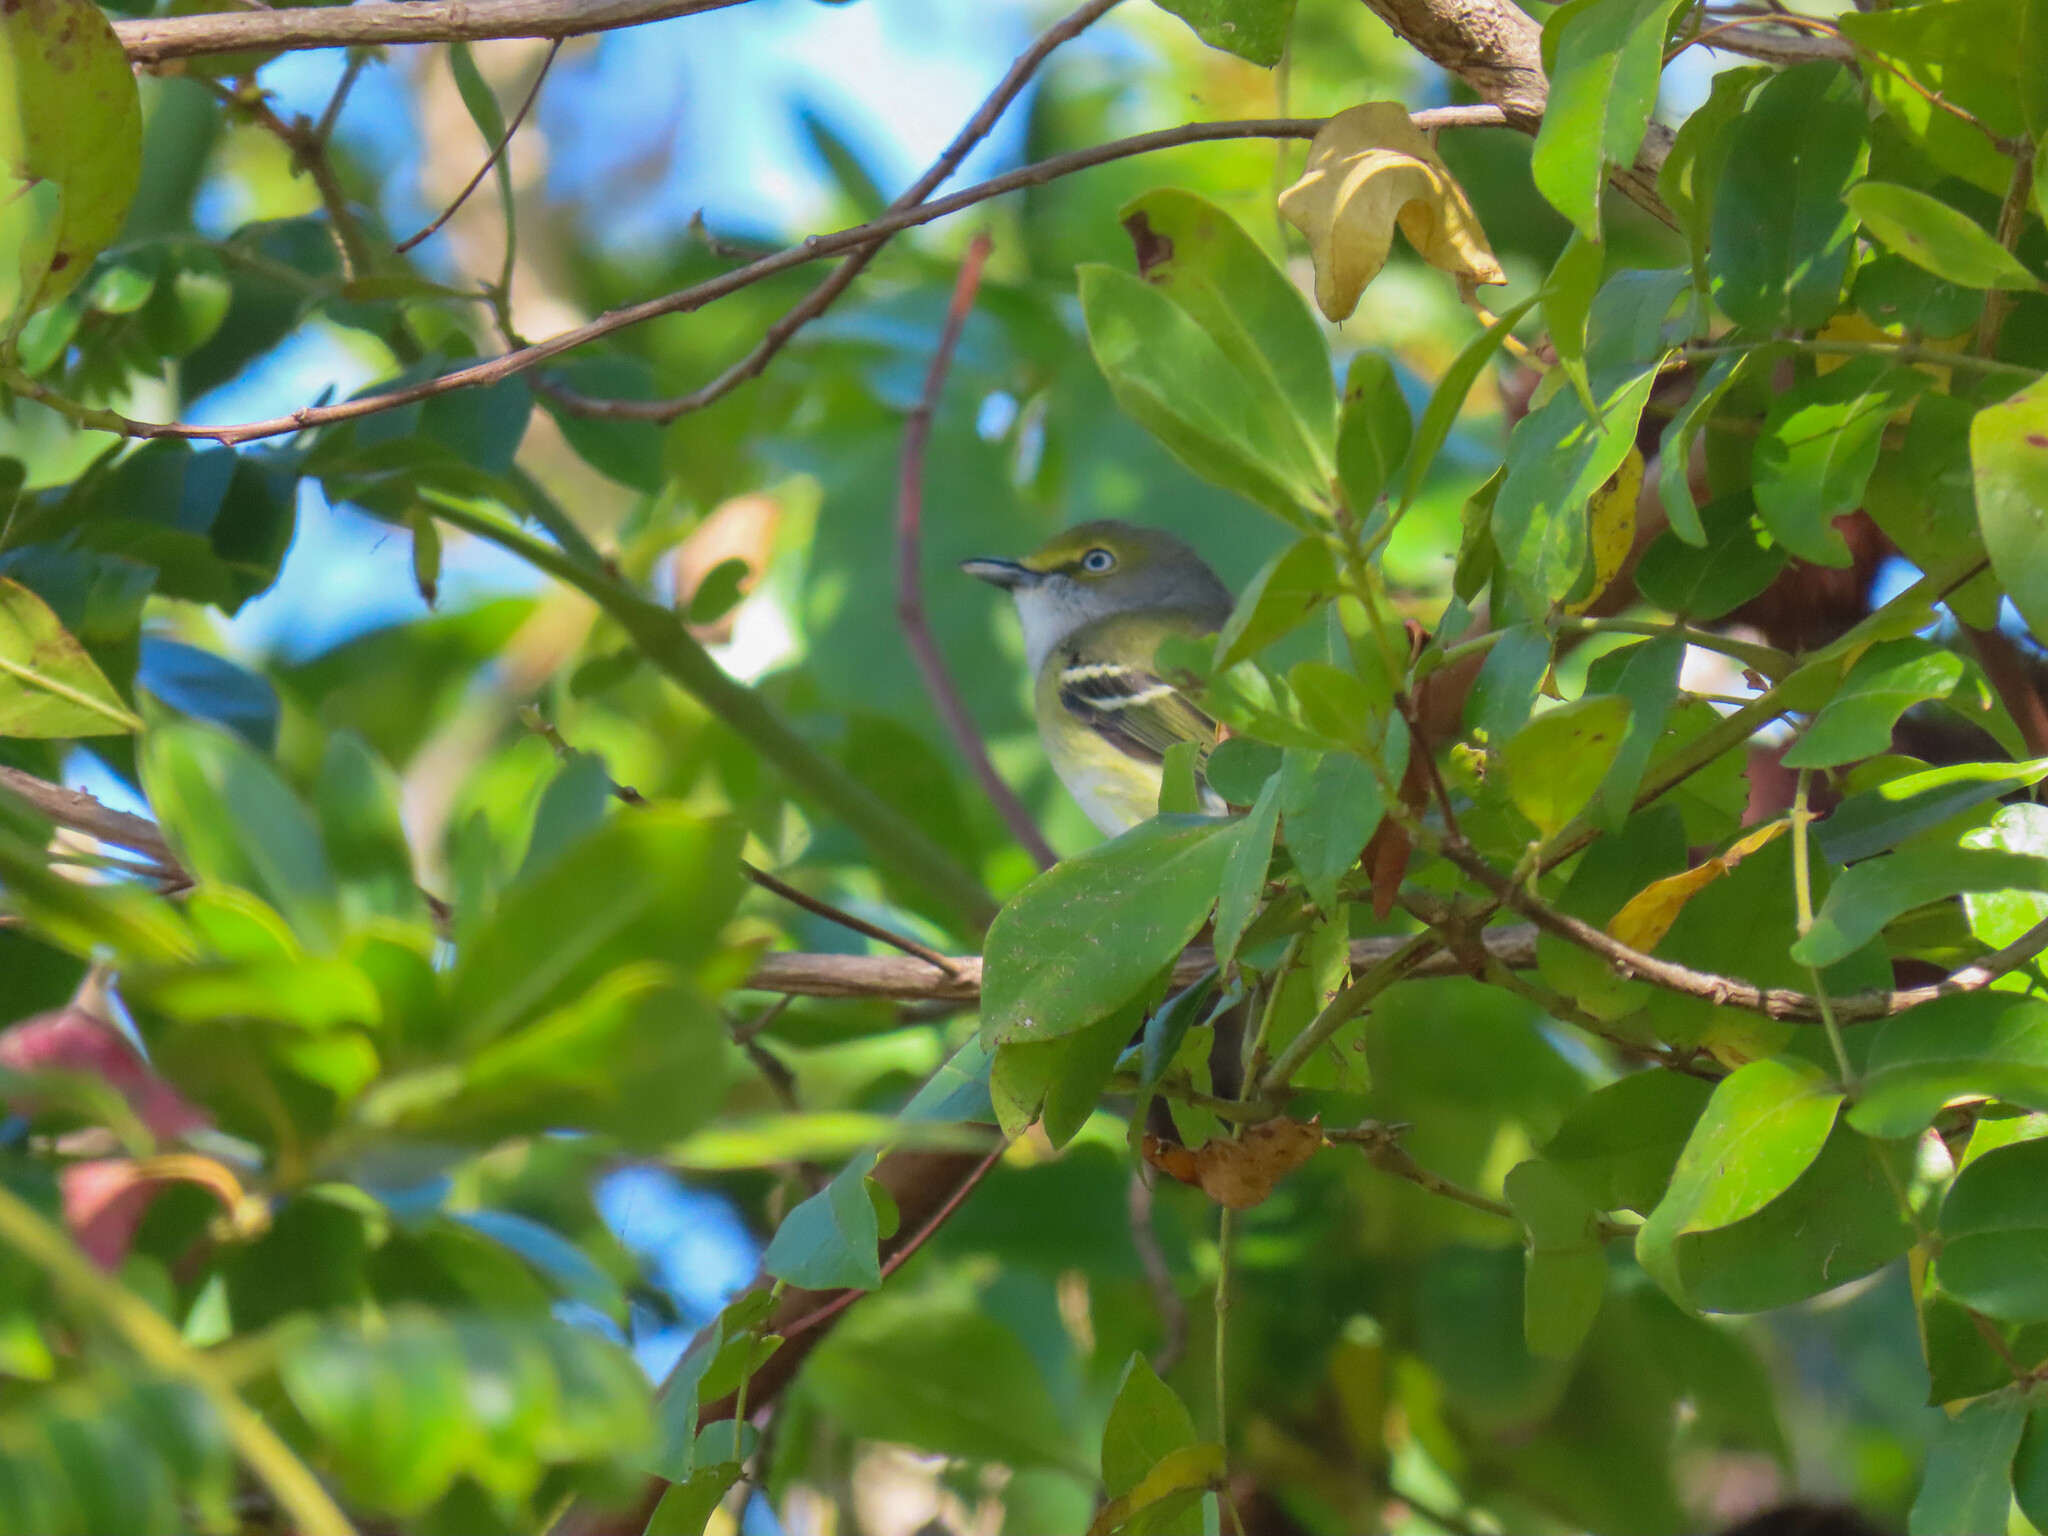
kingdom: Animalia
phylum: Chordata
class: Aves
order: Passeriformes
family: Vireonidae
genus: Vireo
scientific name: Vireo griseus
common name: White-eyed vireo
